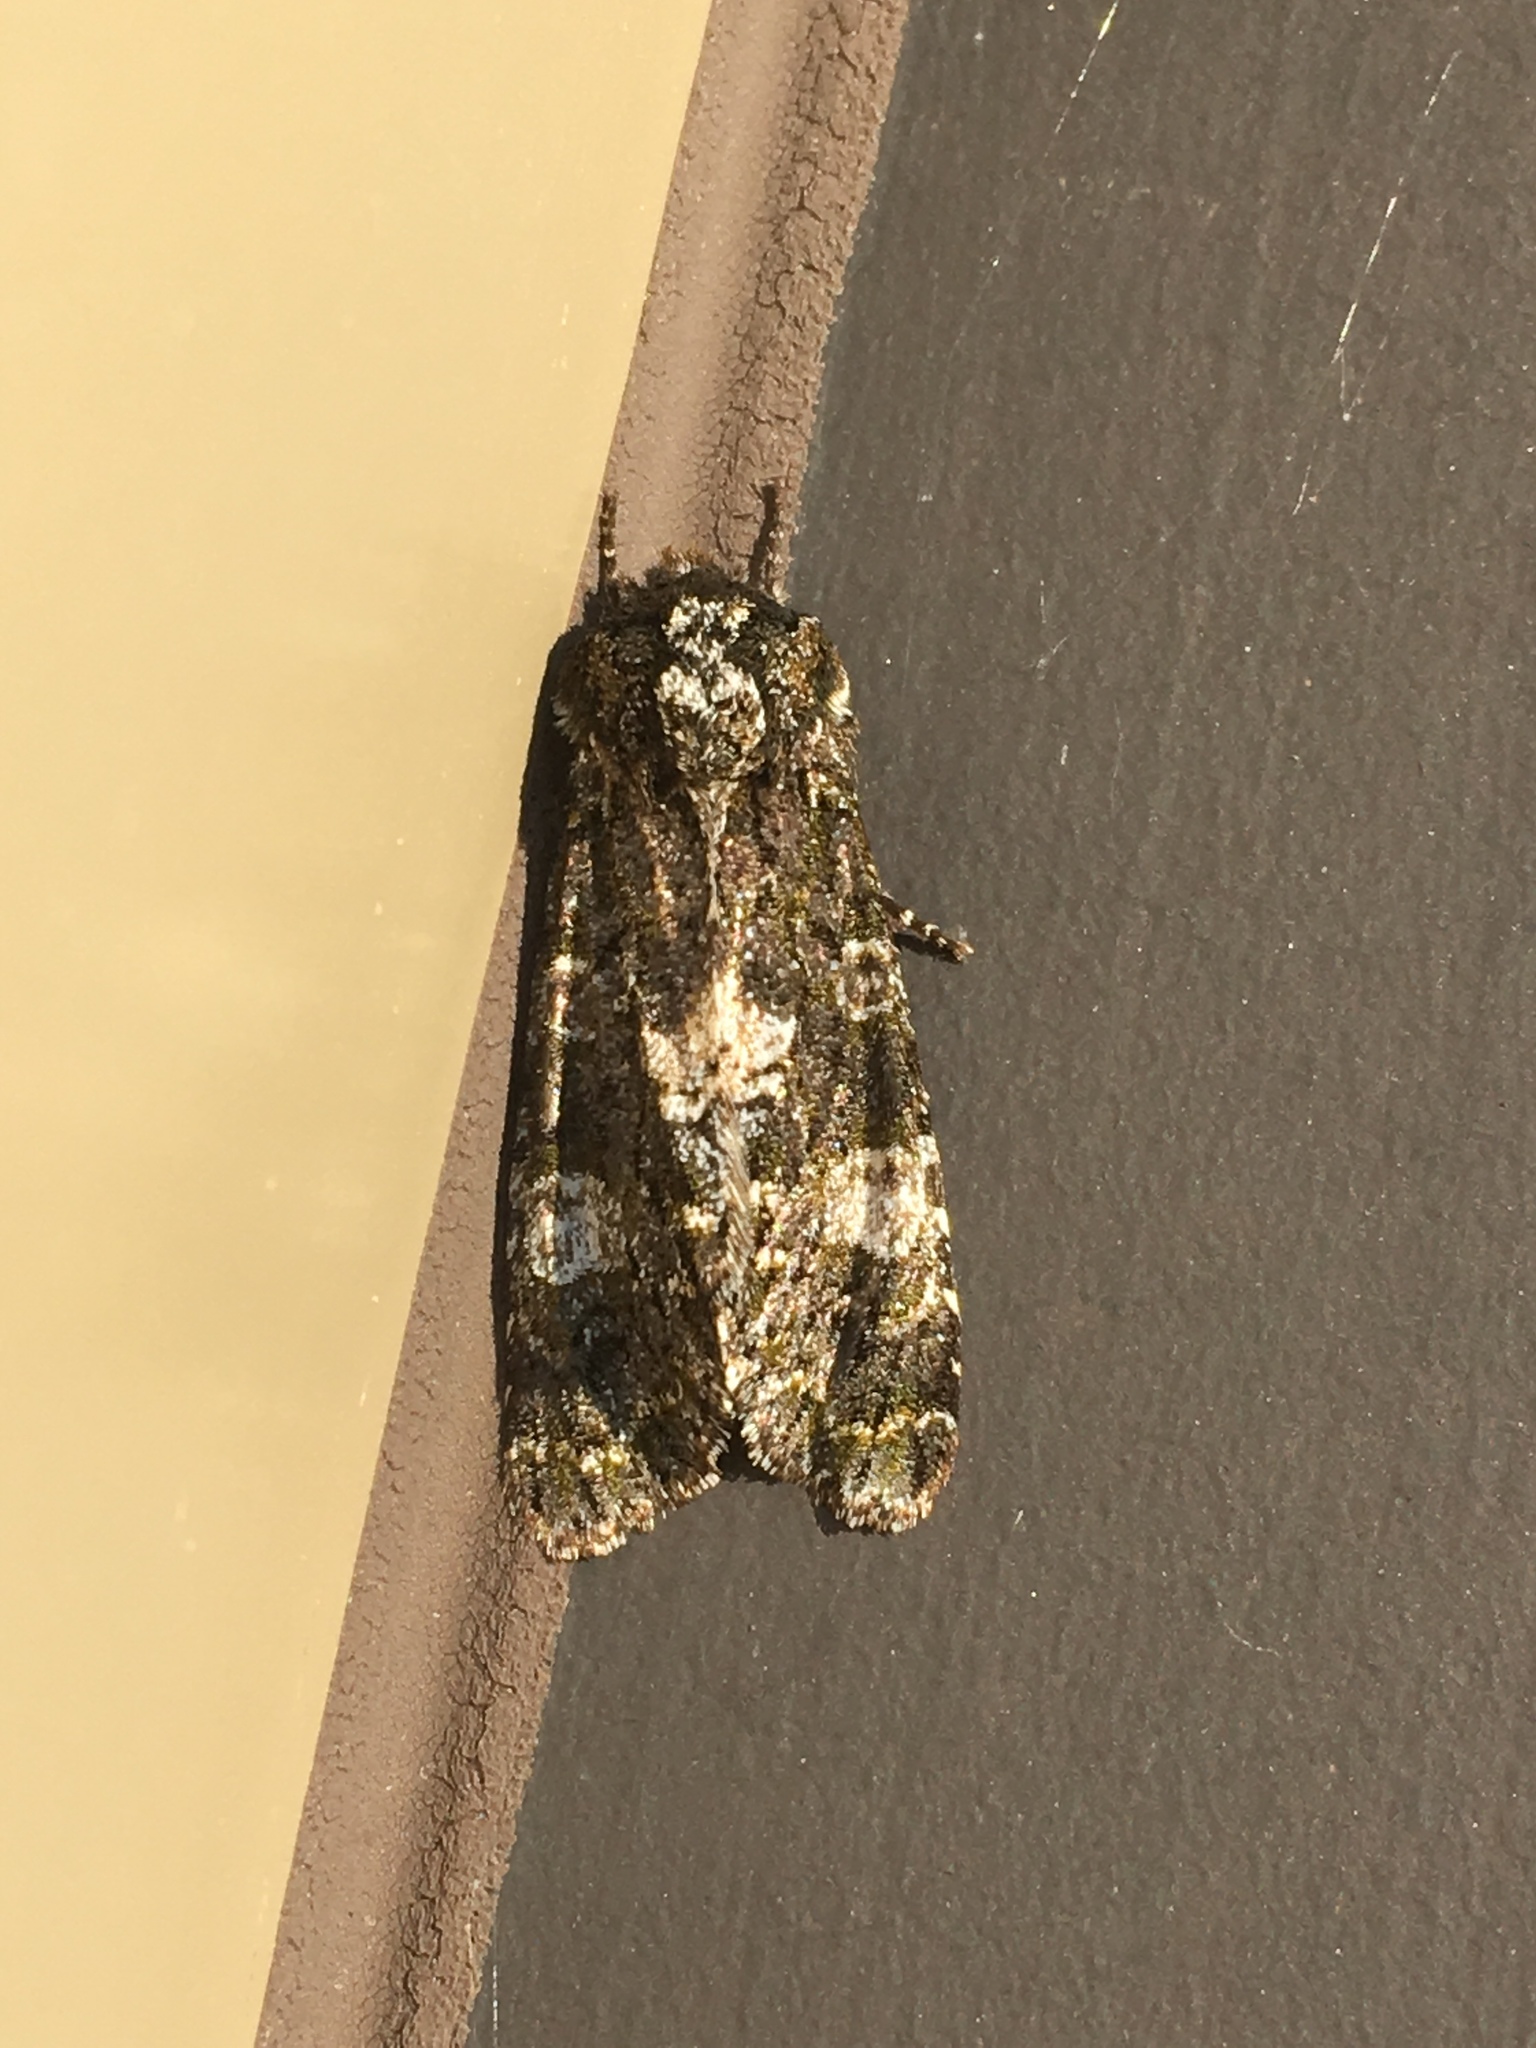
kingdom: Animalia
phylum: Arthropoda
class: Insecta
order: Lepidoptera
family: Noctuidae
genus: Psaphida
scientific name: Psaphida grotei
